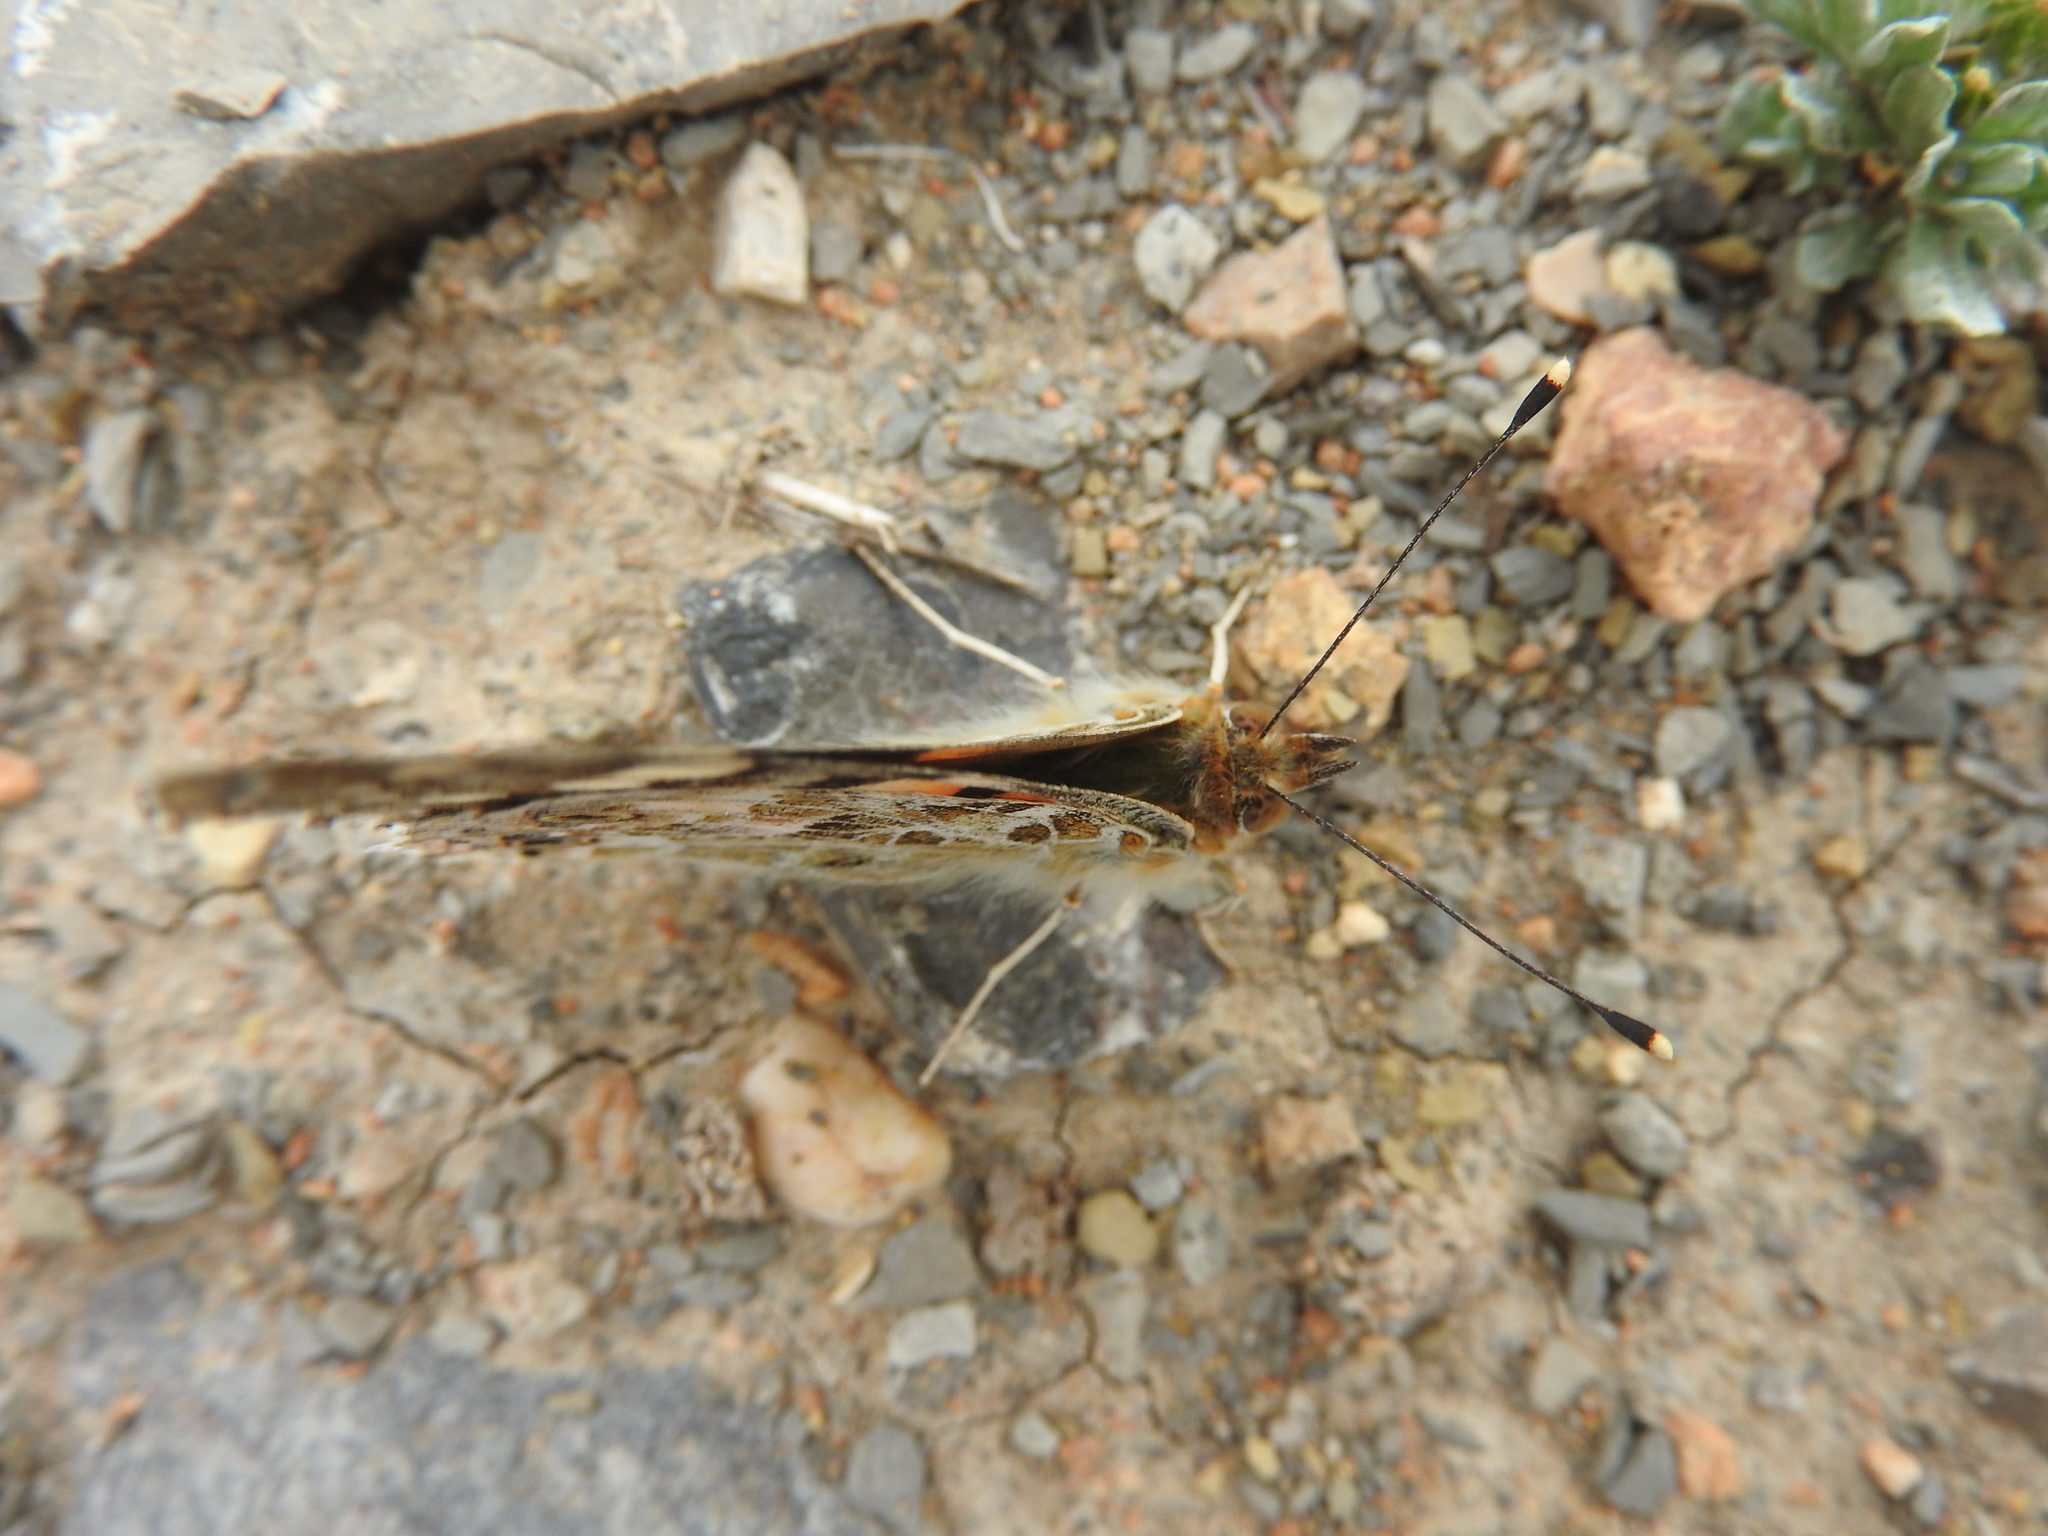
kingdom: Animalia
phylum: Arthropoda
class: Insecta
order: Lepidoptera
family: Nymphalidae
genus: Vanessa
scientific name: Vanessa cardui
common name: Painted lady
